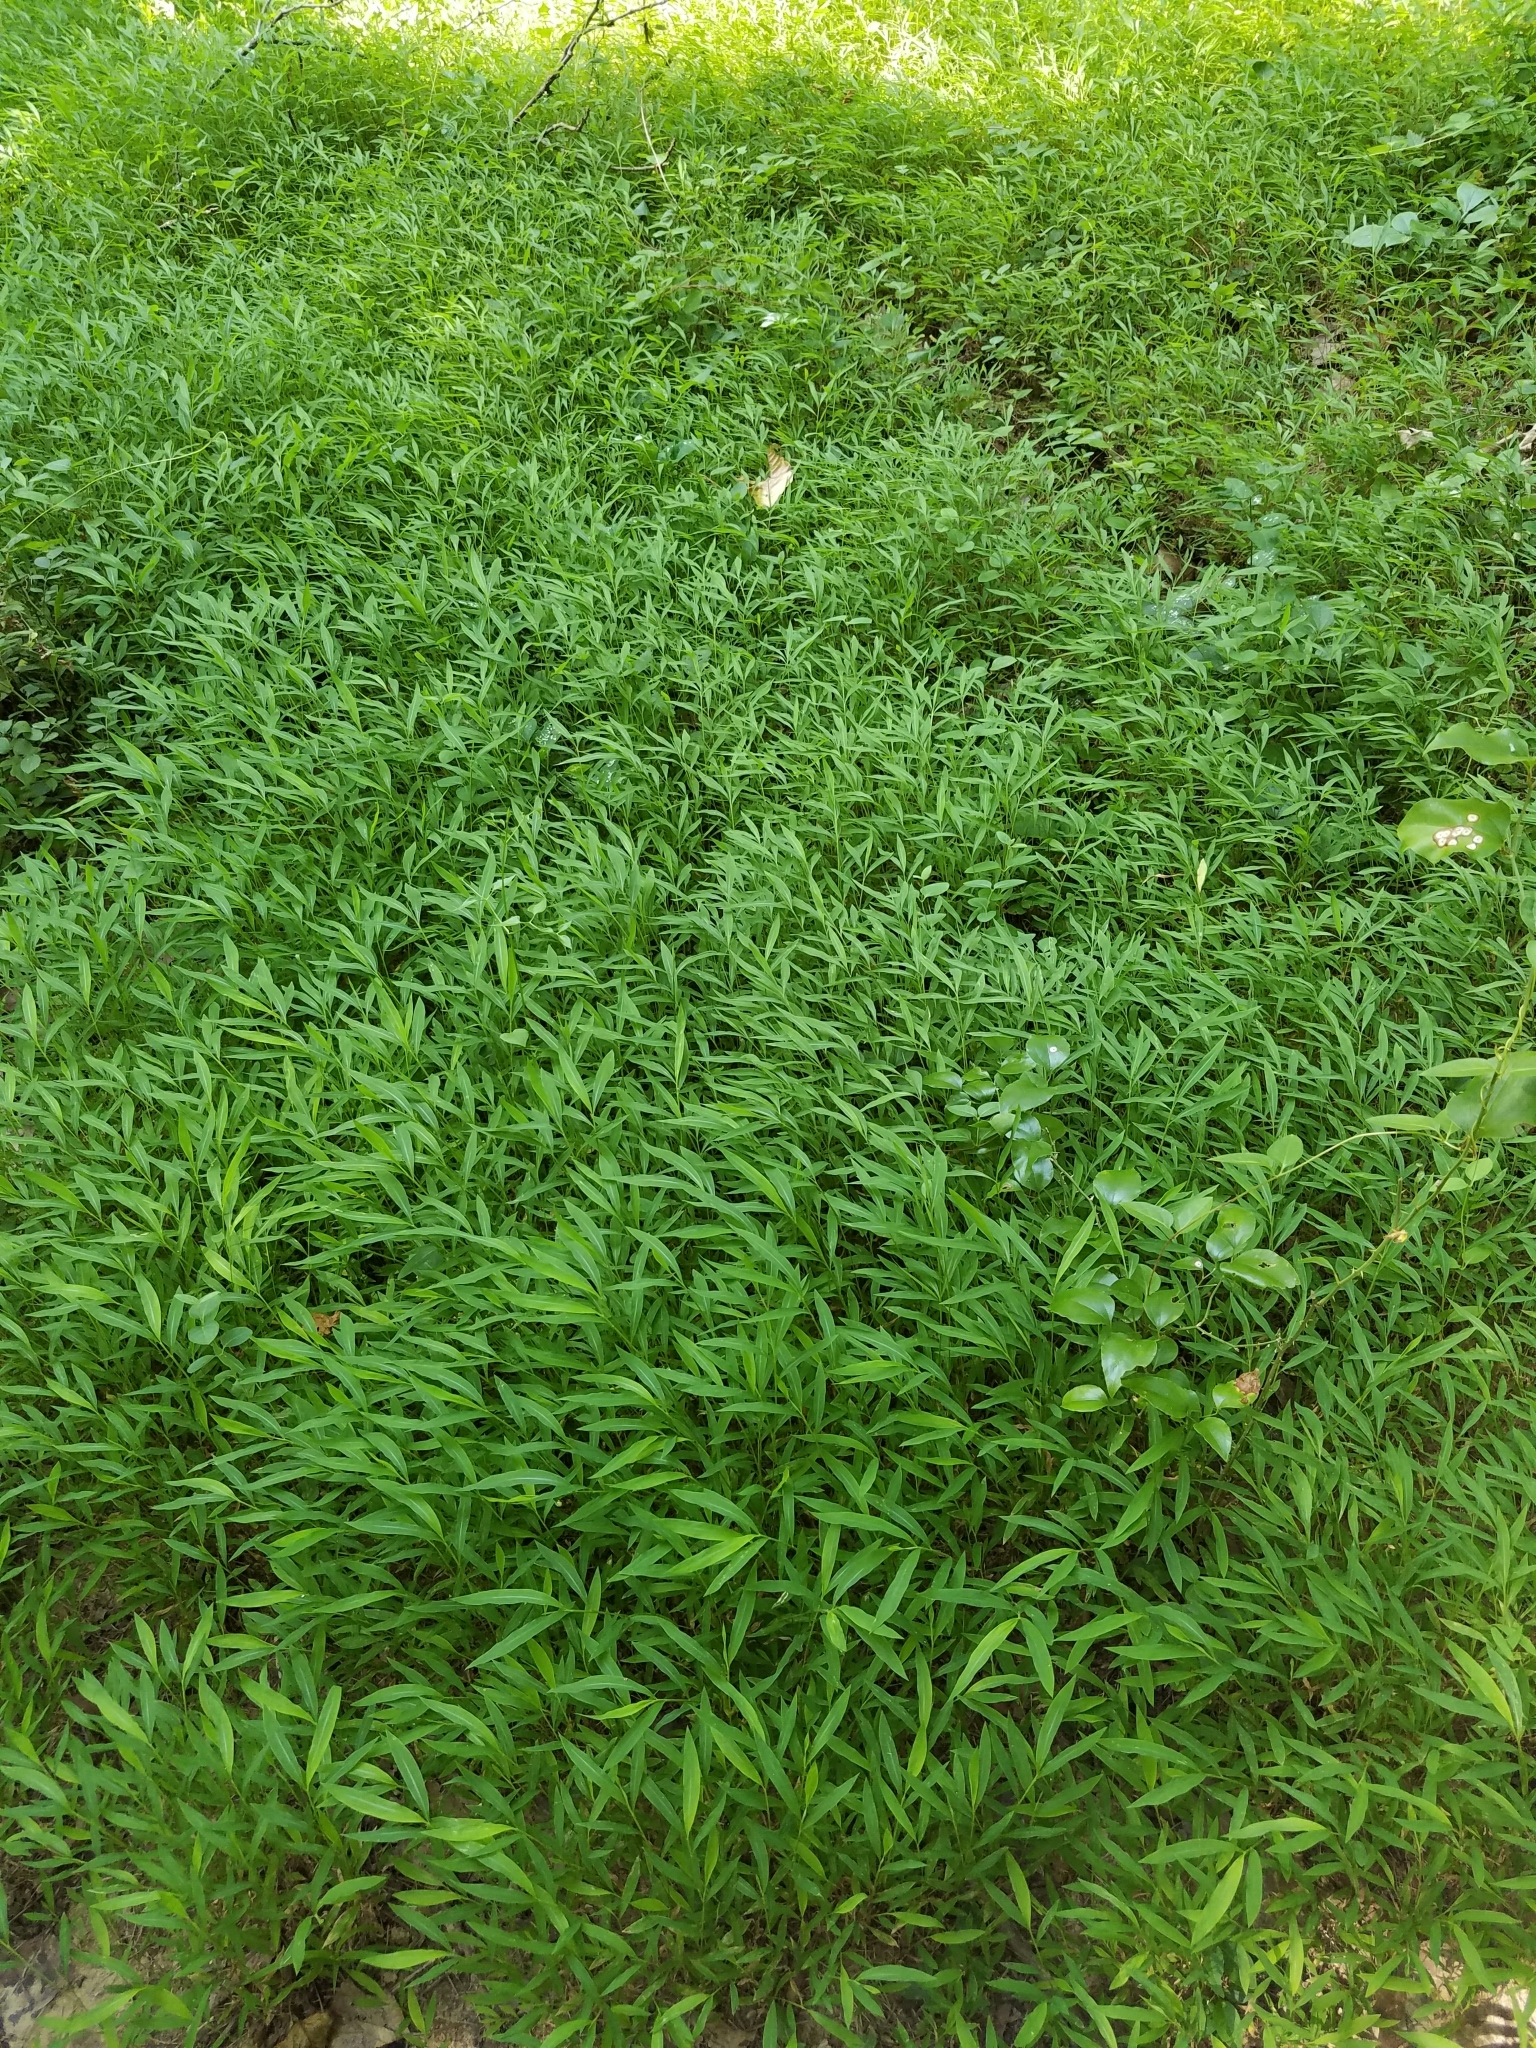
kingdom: Plantae
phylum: Tracheophyta
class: Liliopsida
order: Poales
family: Poaceae
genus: Microstegium
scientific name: Microstegium vimineum
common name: Japanese stiltgrass
